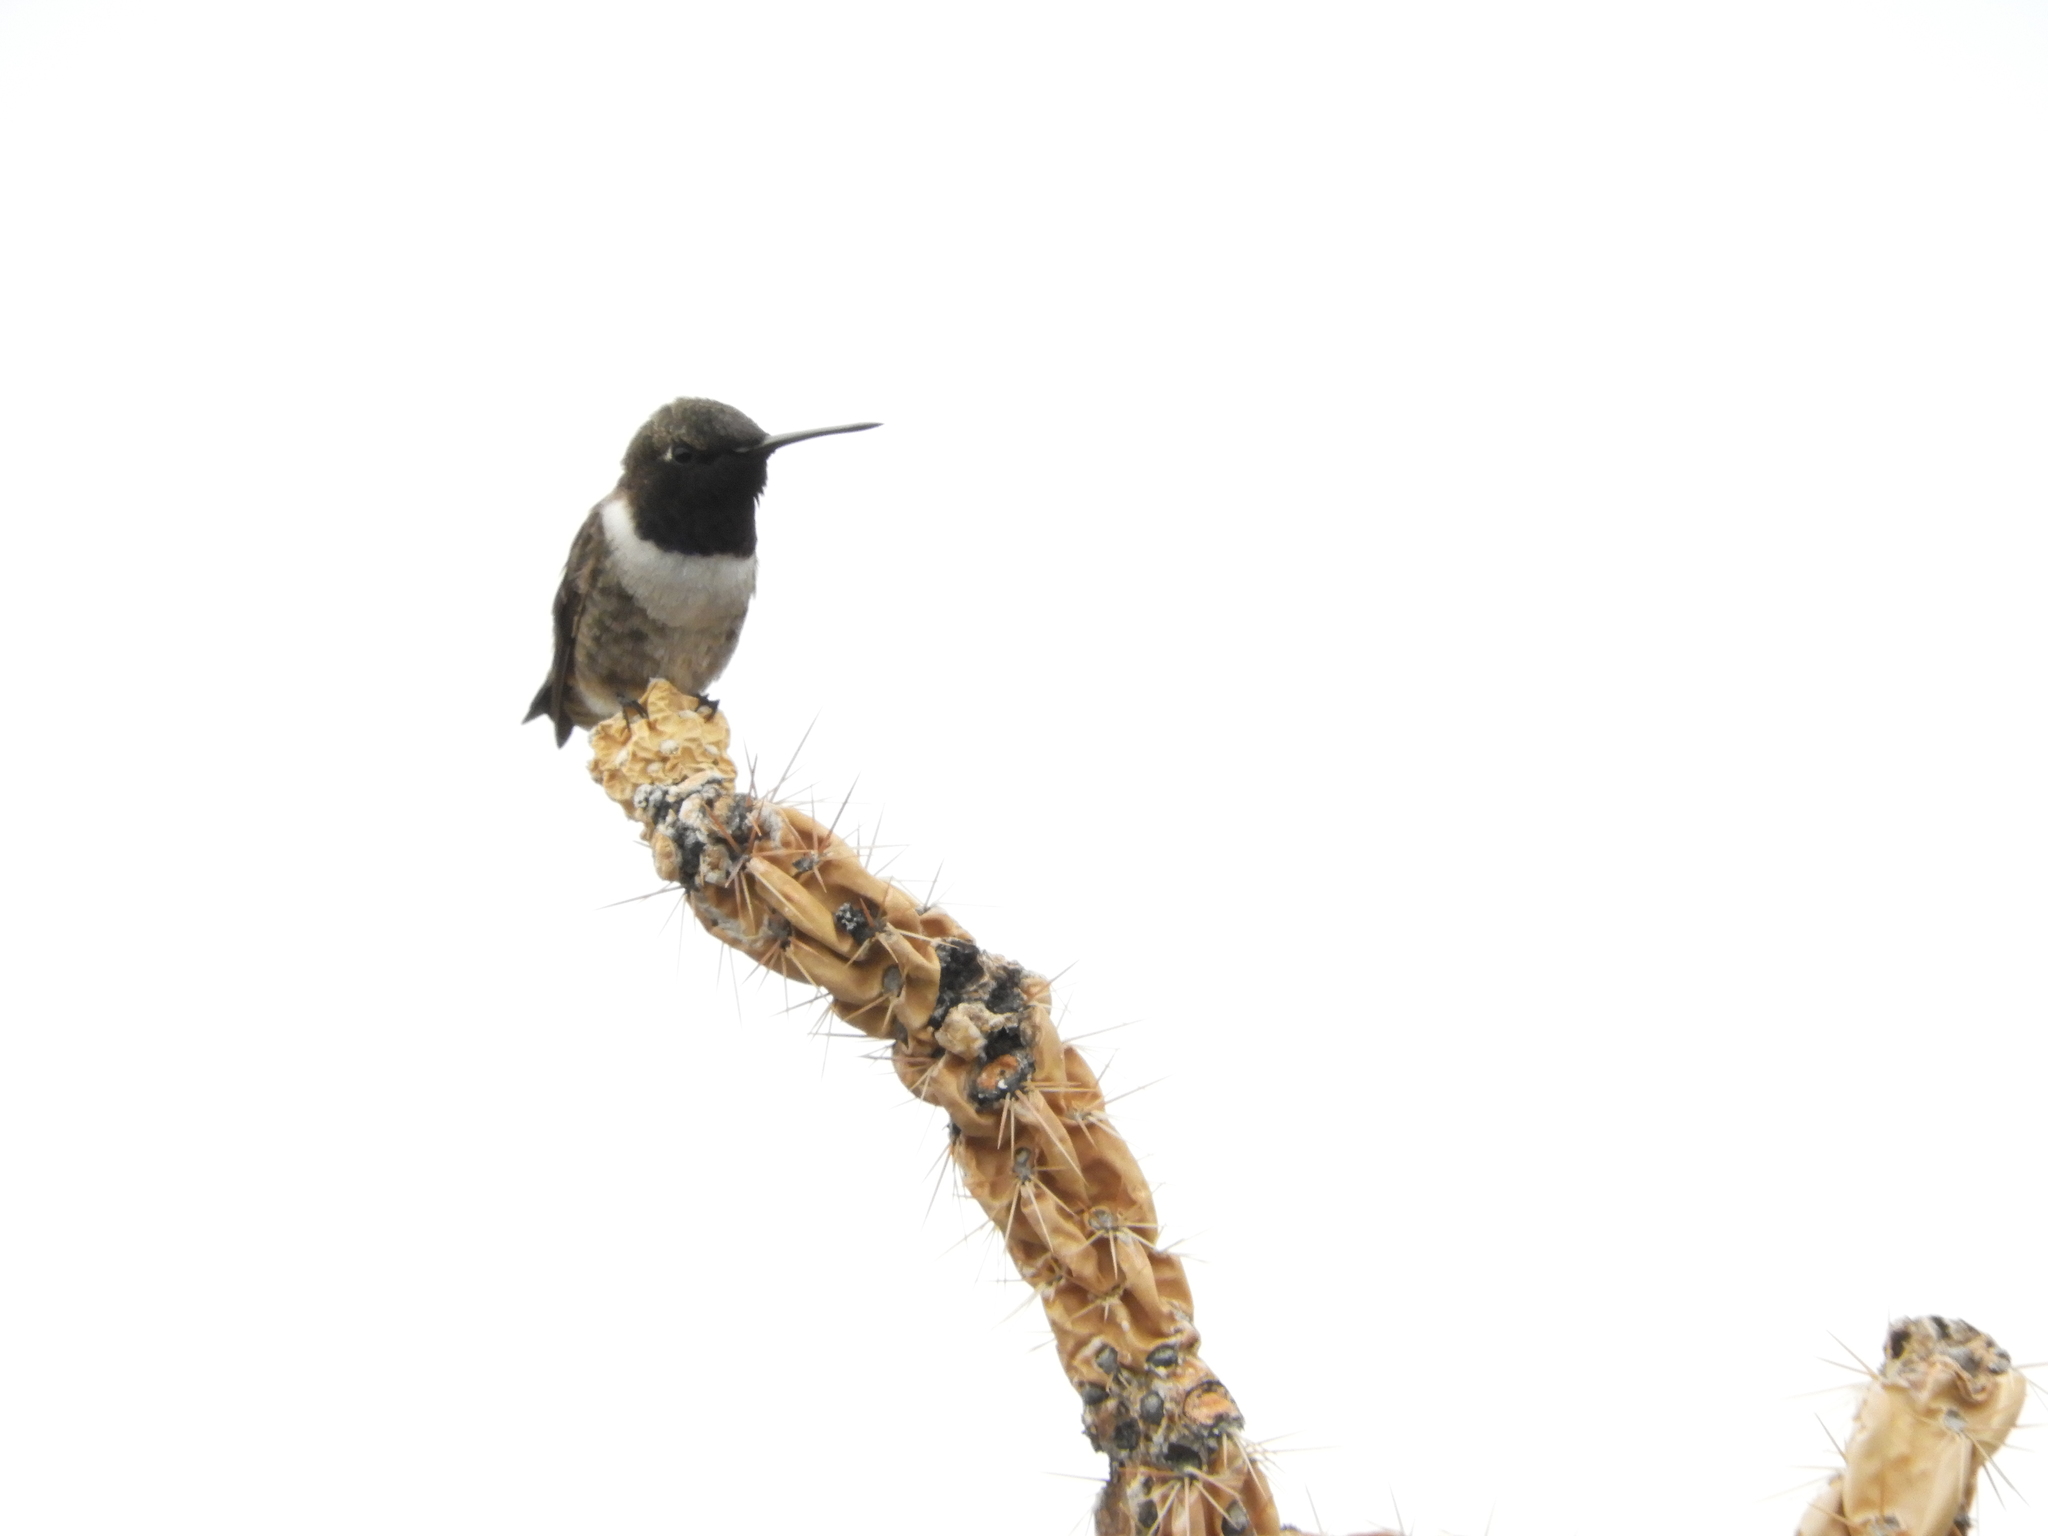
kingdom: Animalia
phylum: Chordata
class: Aves
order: Apodiformes
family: Trochilidae
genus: Archilochus
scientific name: Archilochus alexandri
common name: Black-chinned hummingbird
